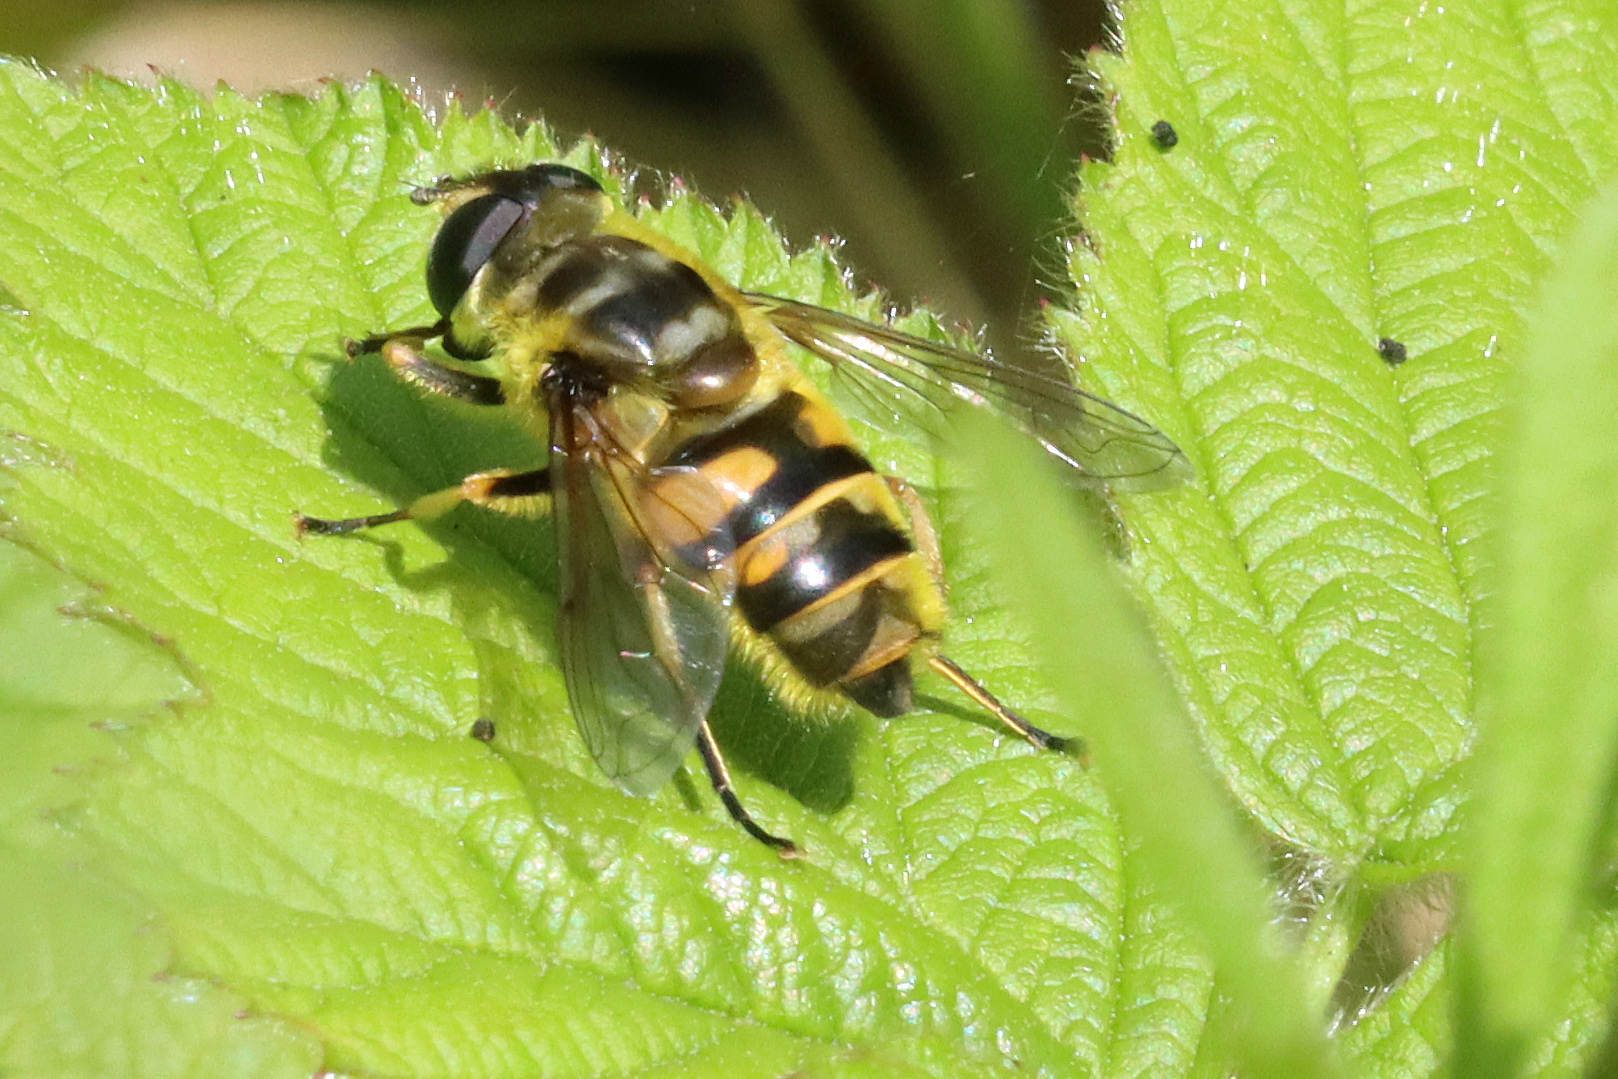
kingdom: Animalia
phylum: Arthropoda
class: Insecta
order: Diptera
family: Syrphidae
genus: Myathropa
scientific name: Myathropa florea
